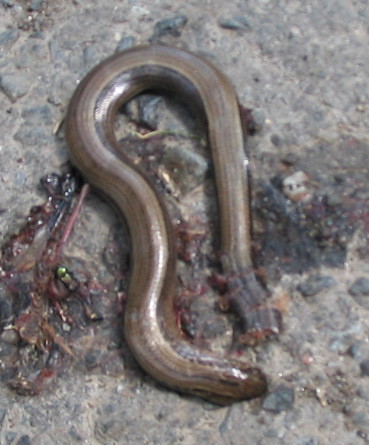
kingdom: Animalia
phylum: Chordata
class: Squamata
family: Anguidae
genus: Anguis
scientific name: Anguis fragilis
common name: Slow worm
